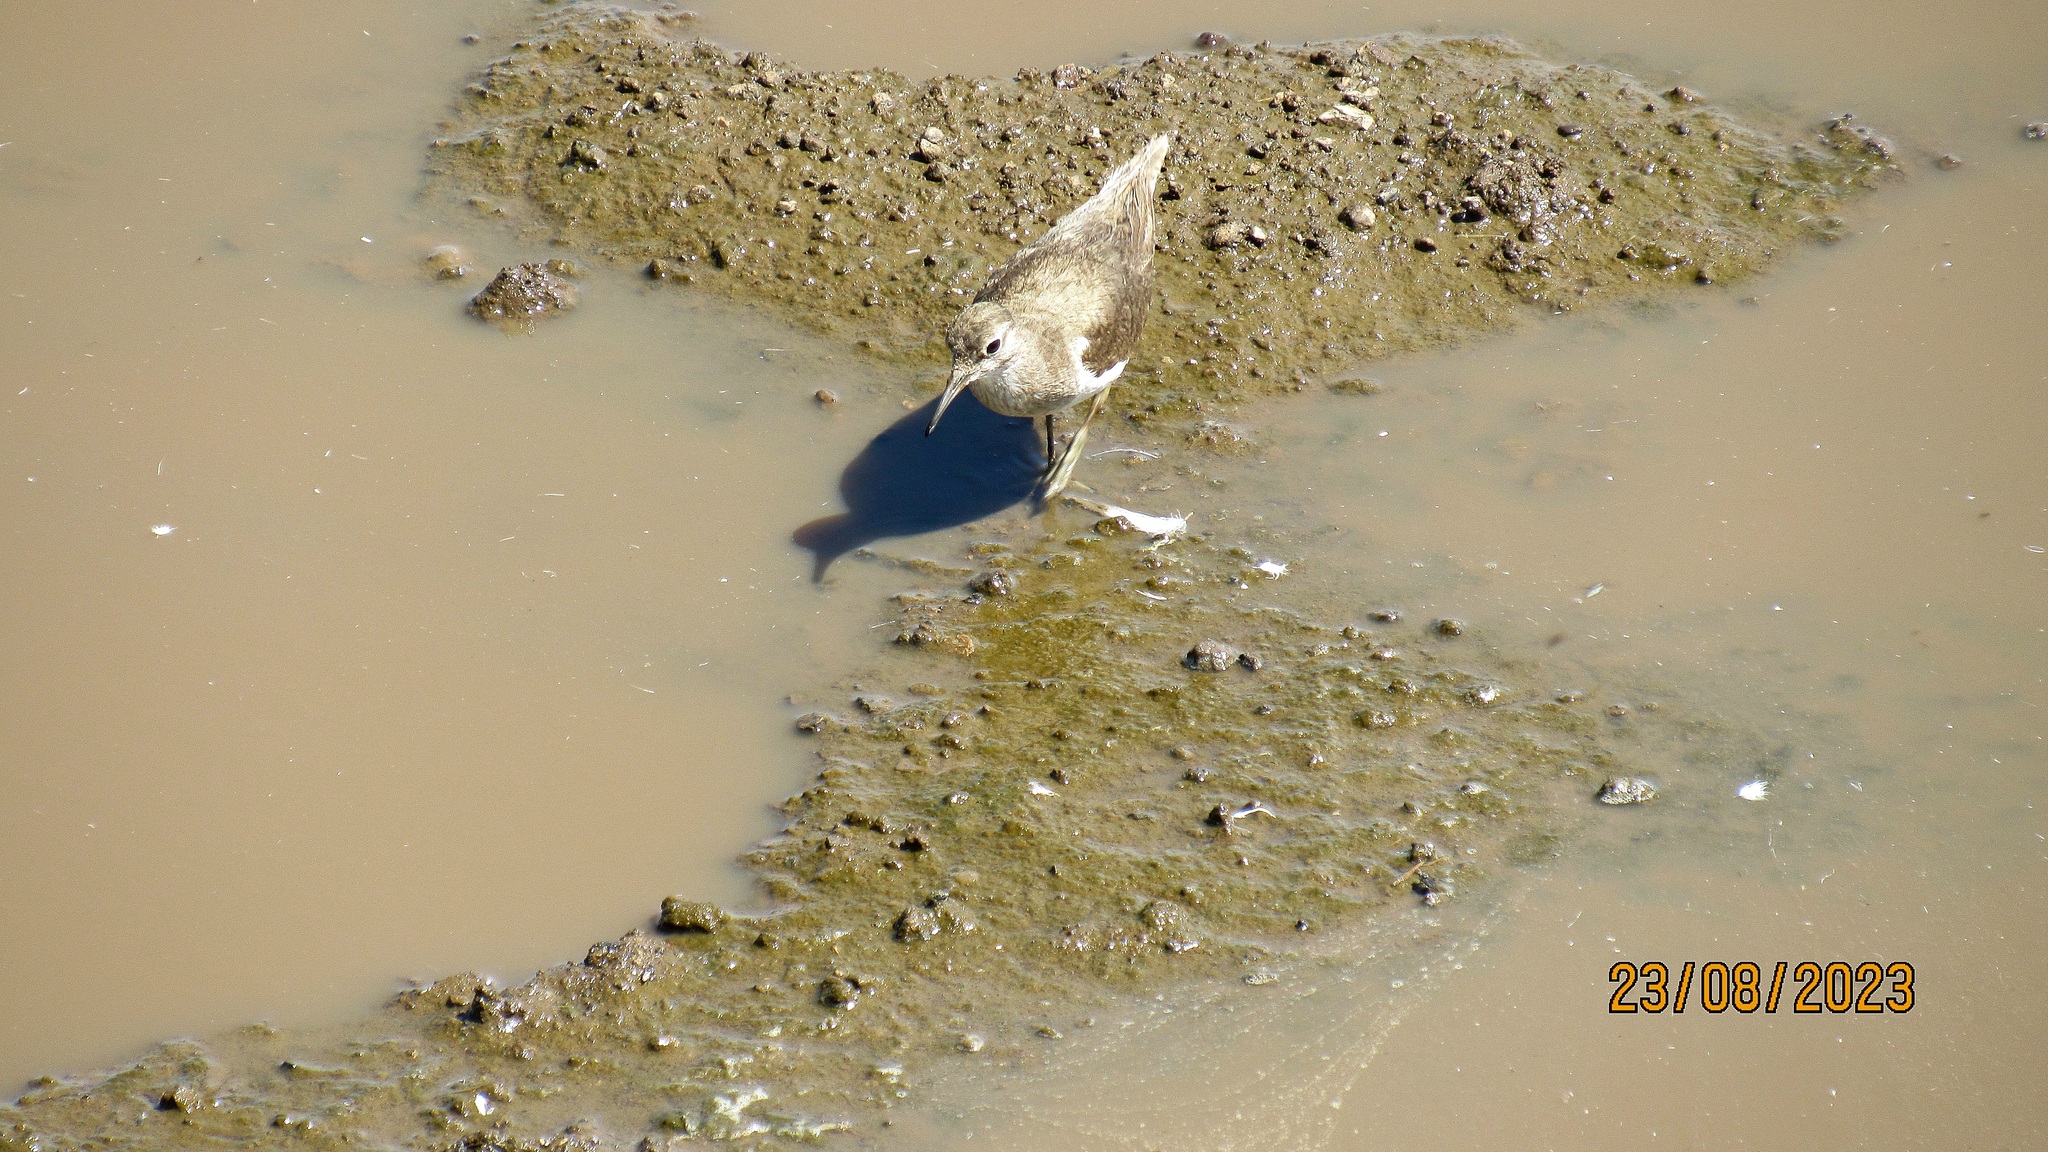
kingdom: Animalia
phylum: Chordata
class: Aves
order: Charadriiformes
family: Scolopacidae
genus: Actitis
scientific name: Actitis hypoleucos
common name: Common sandpiper
